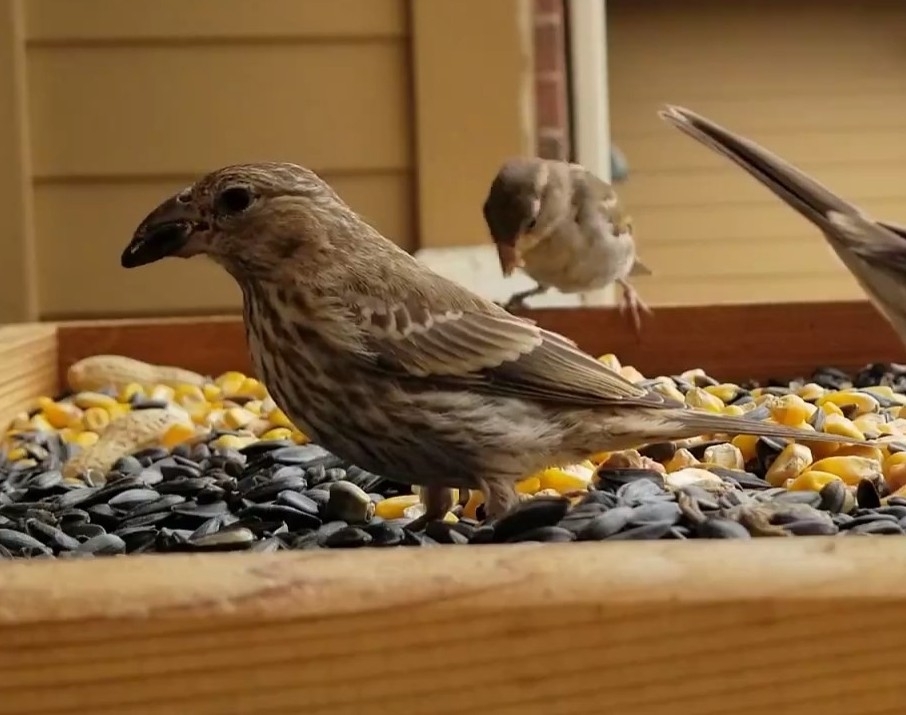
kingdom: Animalia
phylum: Chordata
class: Aves
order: Passeriformes
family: Fringillidae
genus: Haemorhous
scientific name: Haemorhous mexicanus
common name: House finch
